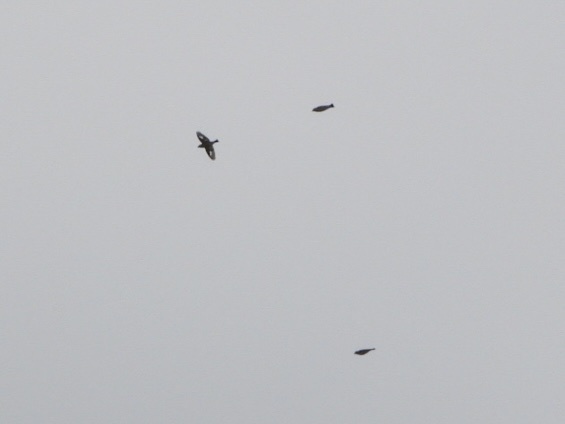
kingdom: Animalia
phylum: Chordata
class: Aves
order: Passeriformes
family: Fringillidae
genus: Hesperiphona
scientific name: Hesperiphona vespertina
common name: Evening grosbeak
